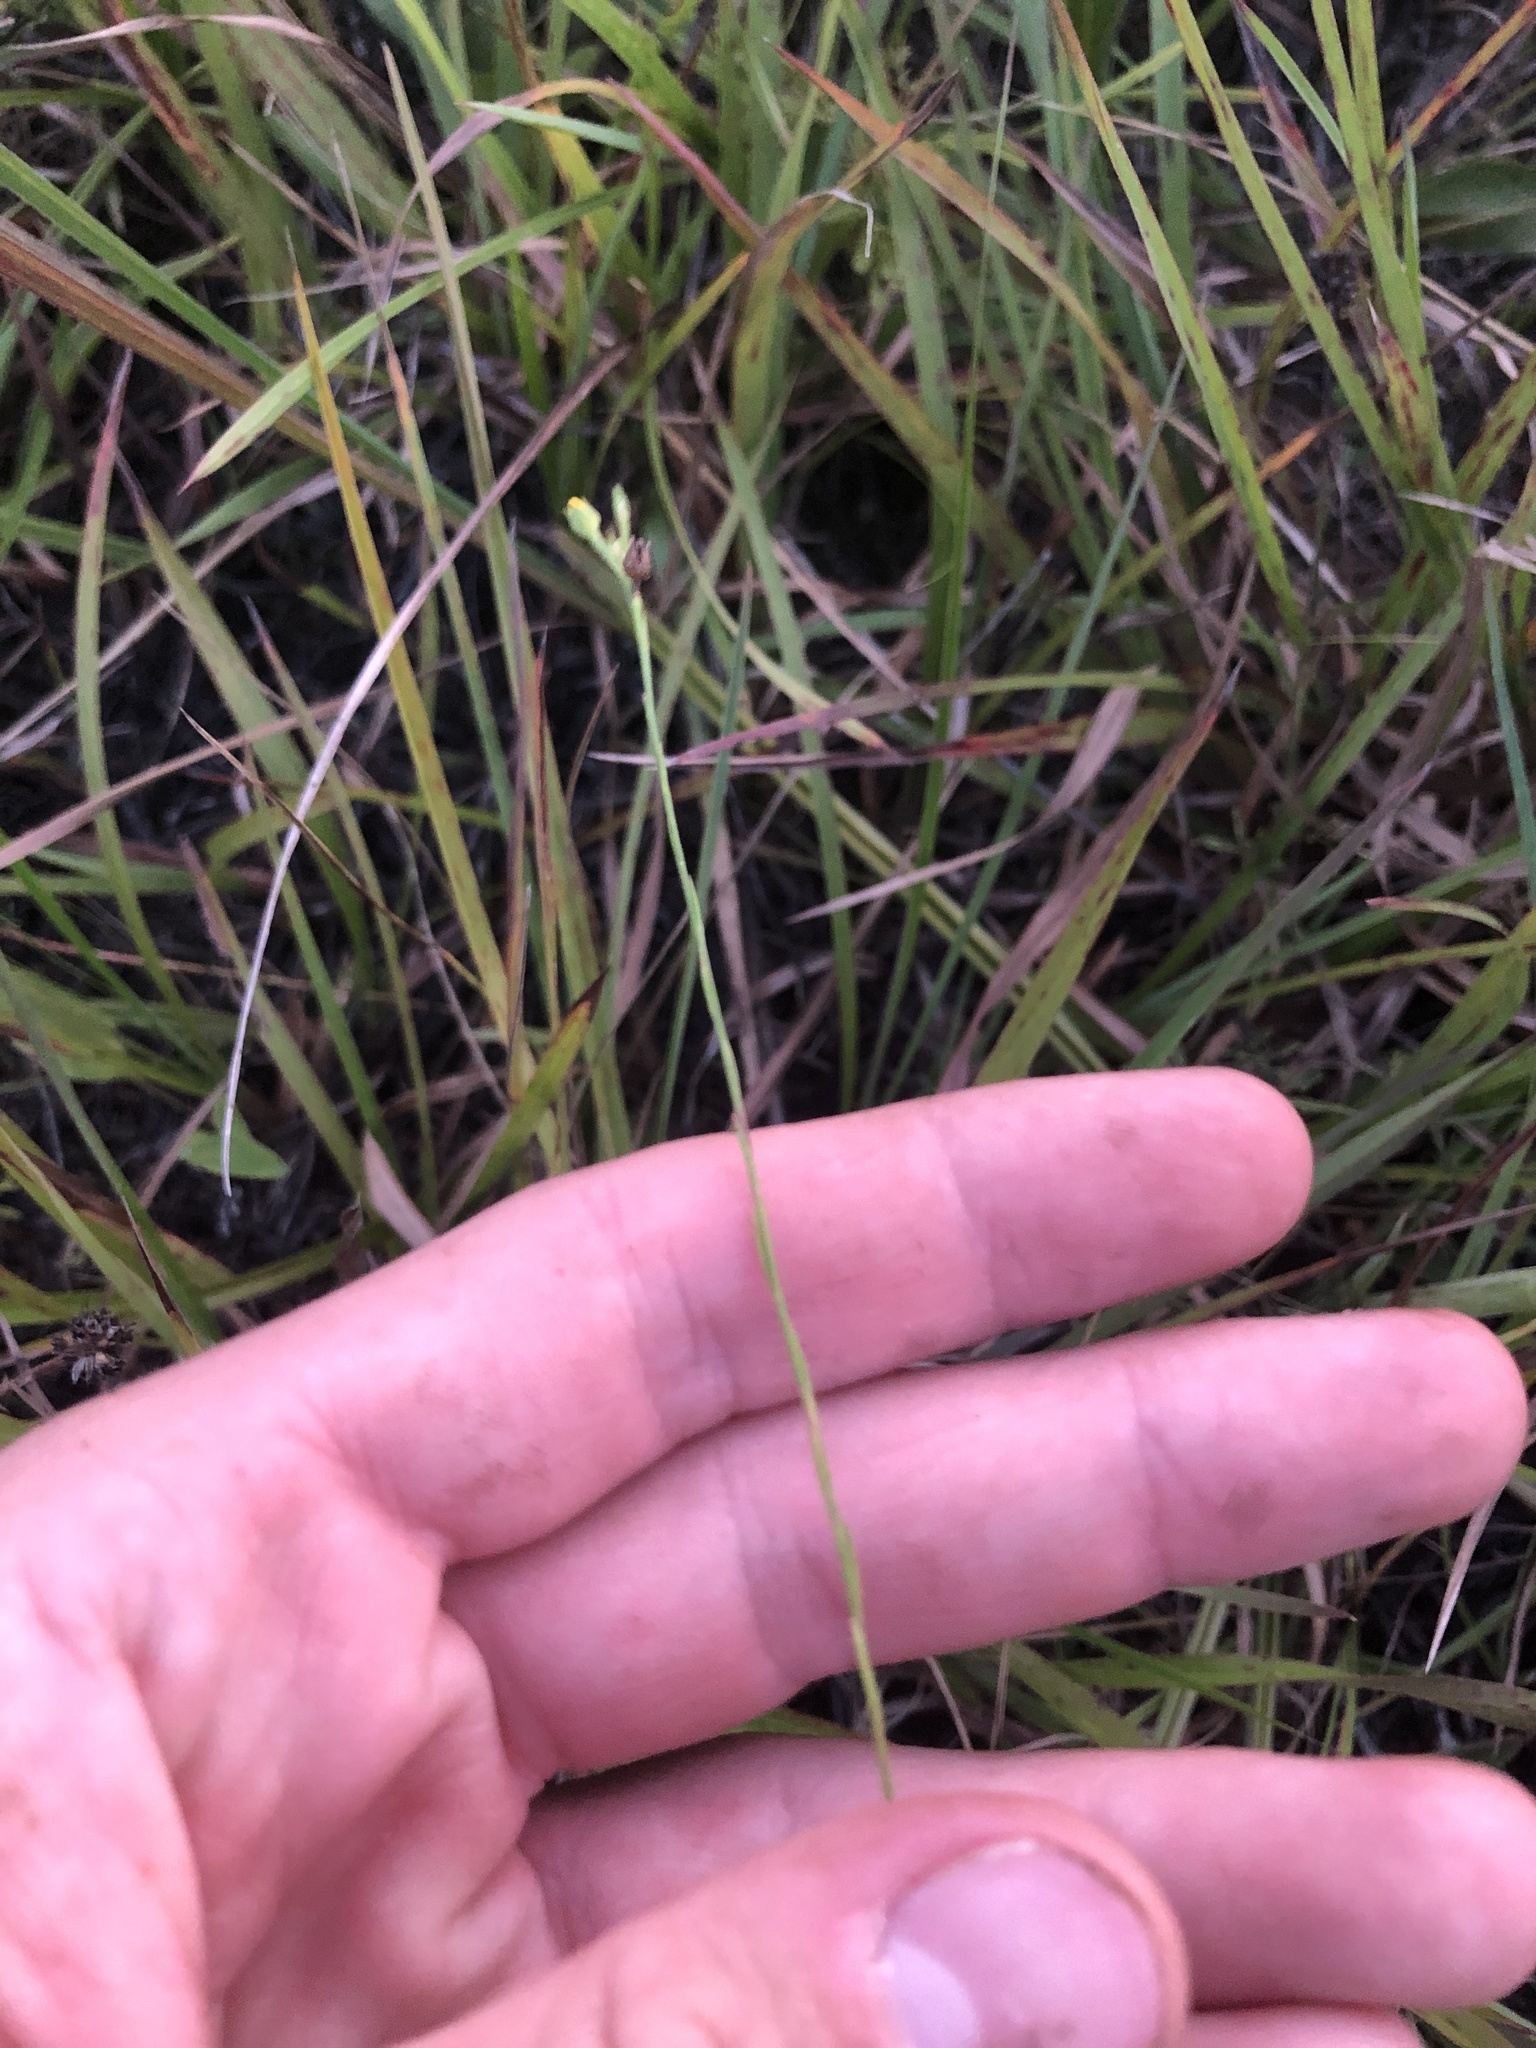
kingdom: Plantae
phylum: Tracheophyta
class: Magnoliopsida
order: Malpighiales
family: Linaceae
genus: Linum
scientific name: Linum sulcatum
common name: Grooved flax
